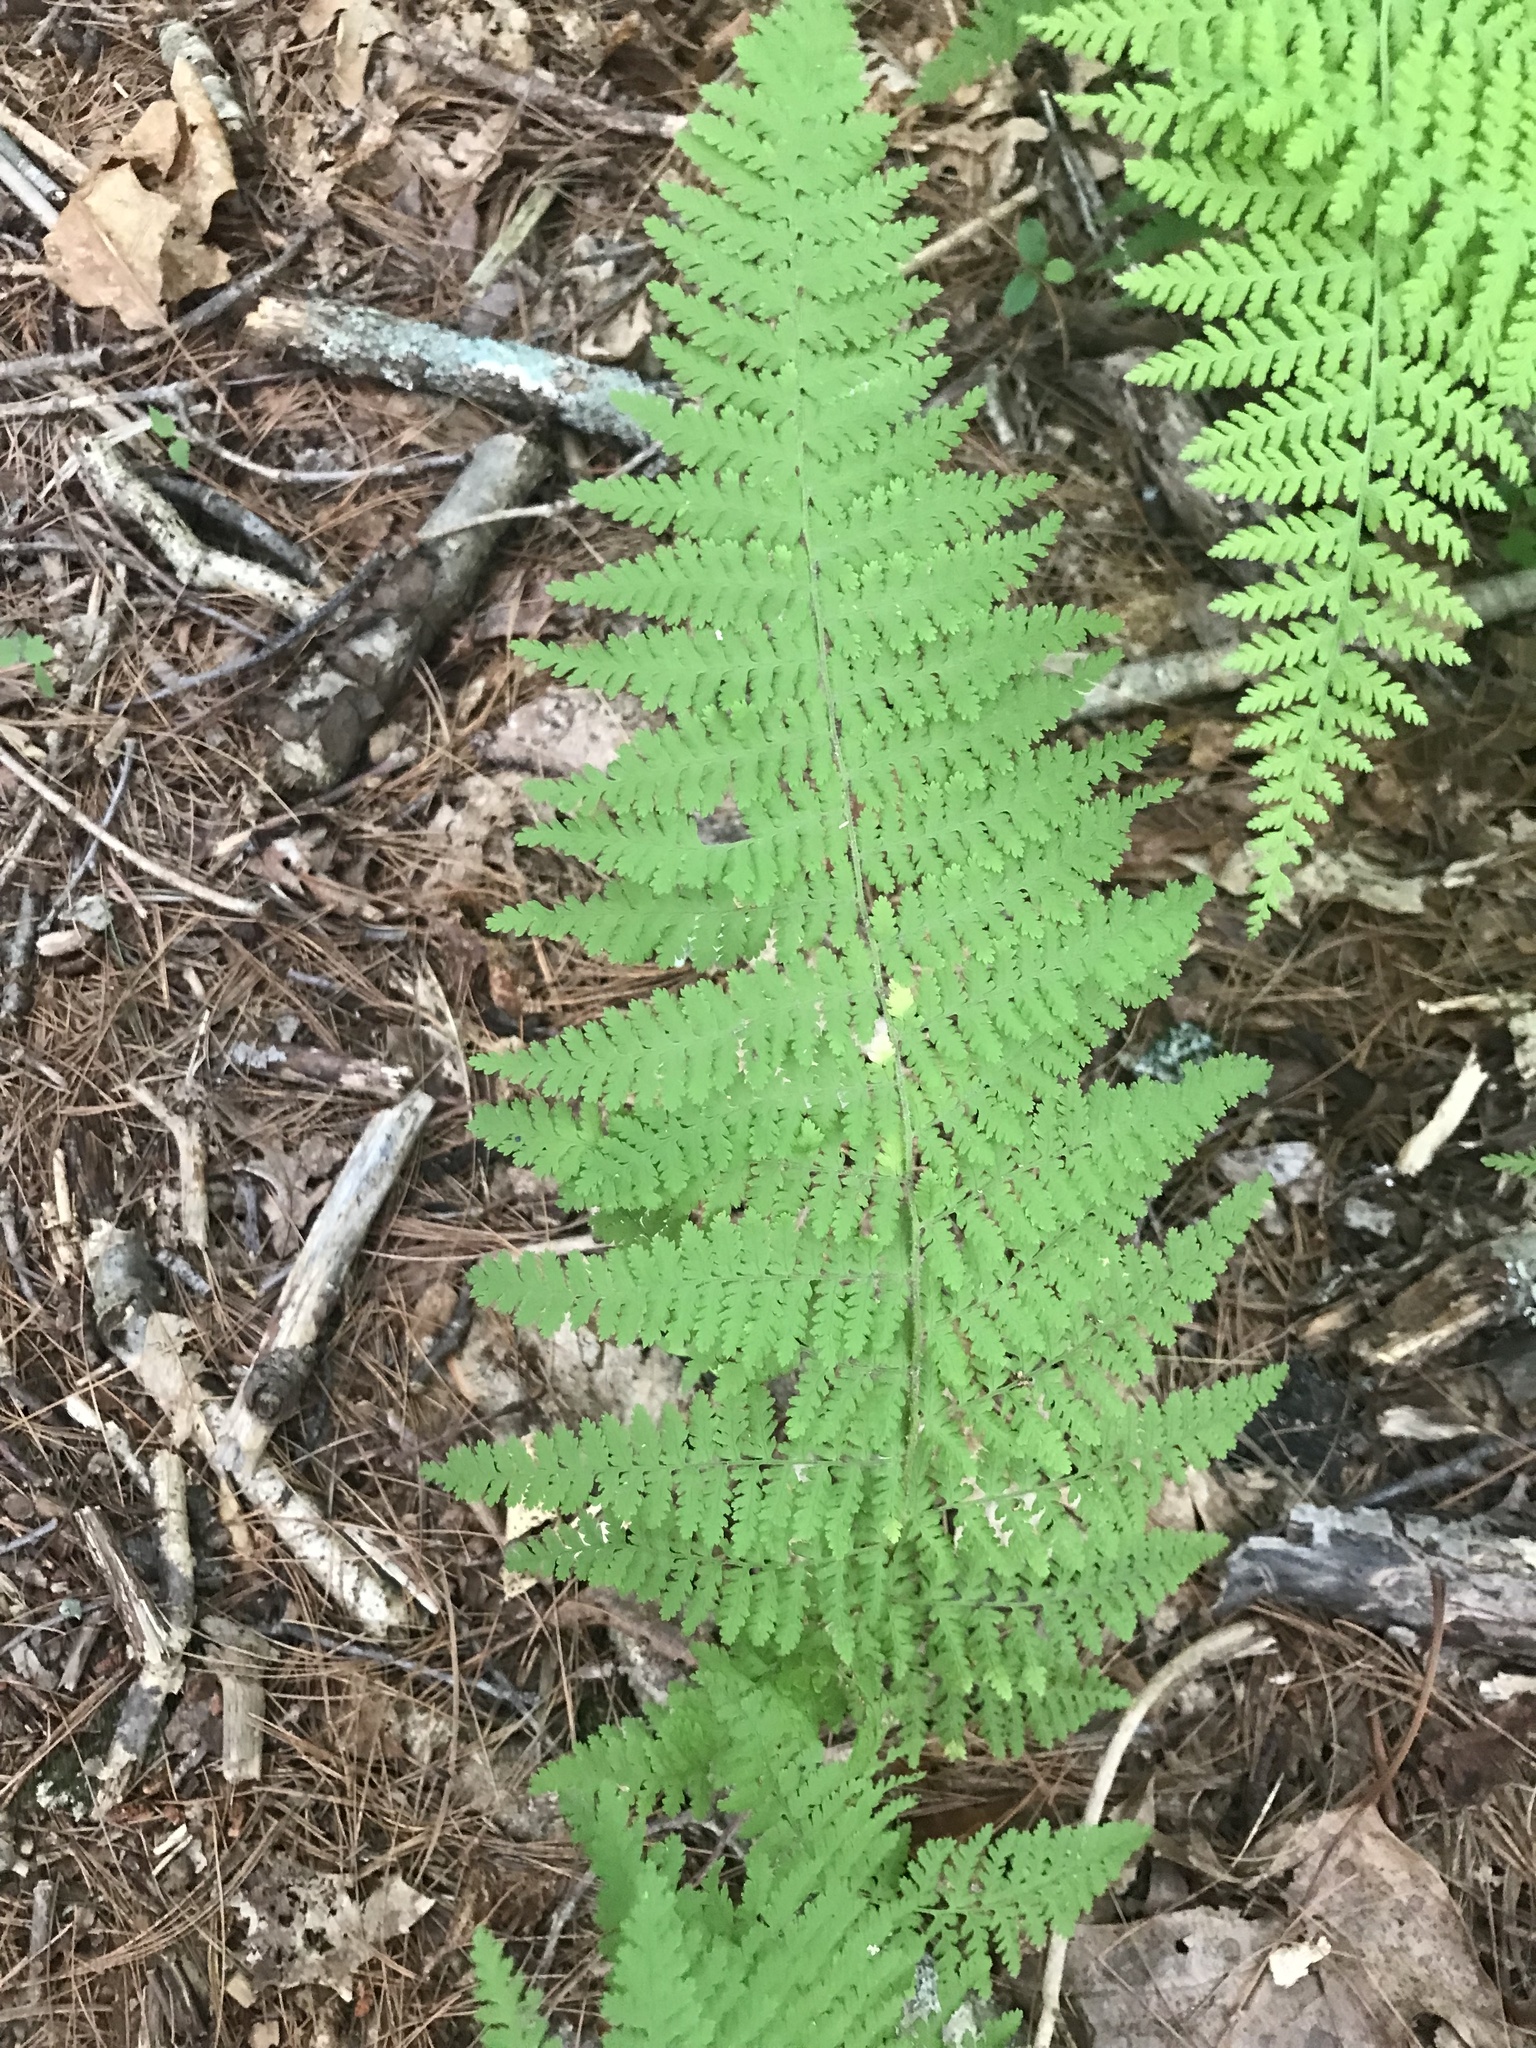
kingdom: Plantae
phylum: Tracheophyta
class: Polypodiopsida
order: Polypodiales
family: Dennstaedtiaceae
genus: Sitobolium
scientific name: Sitobolium punctilobum
